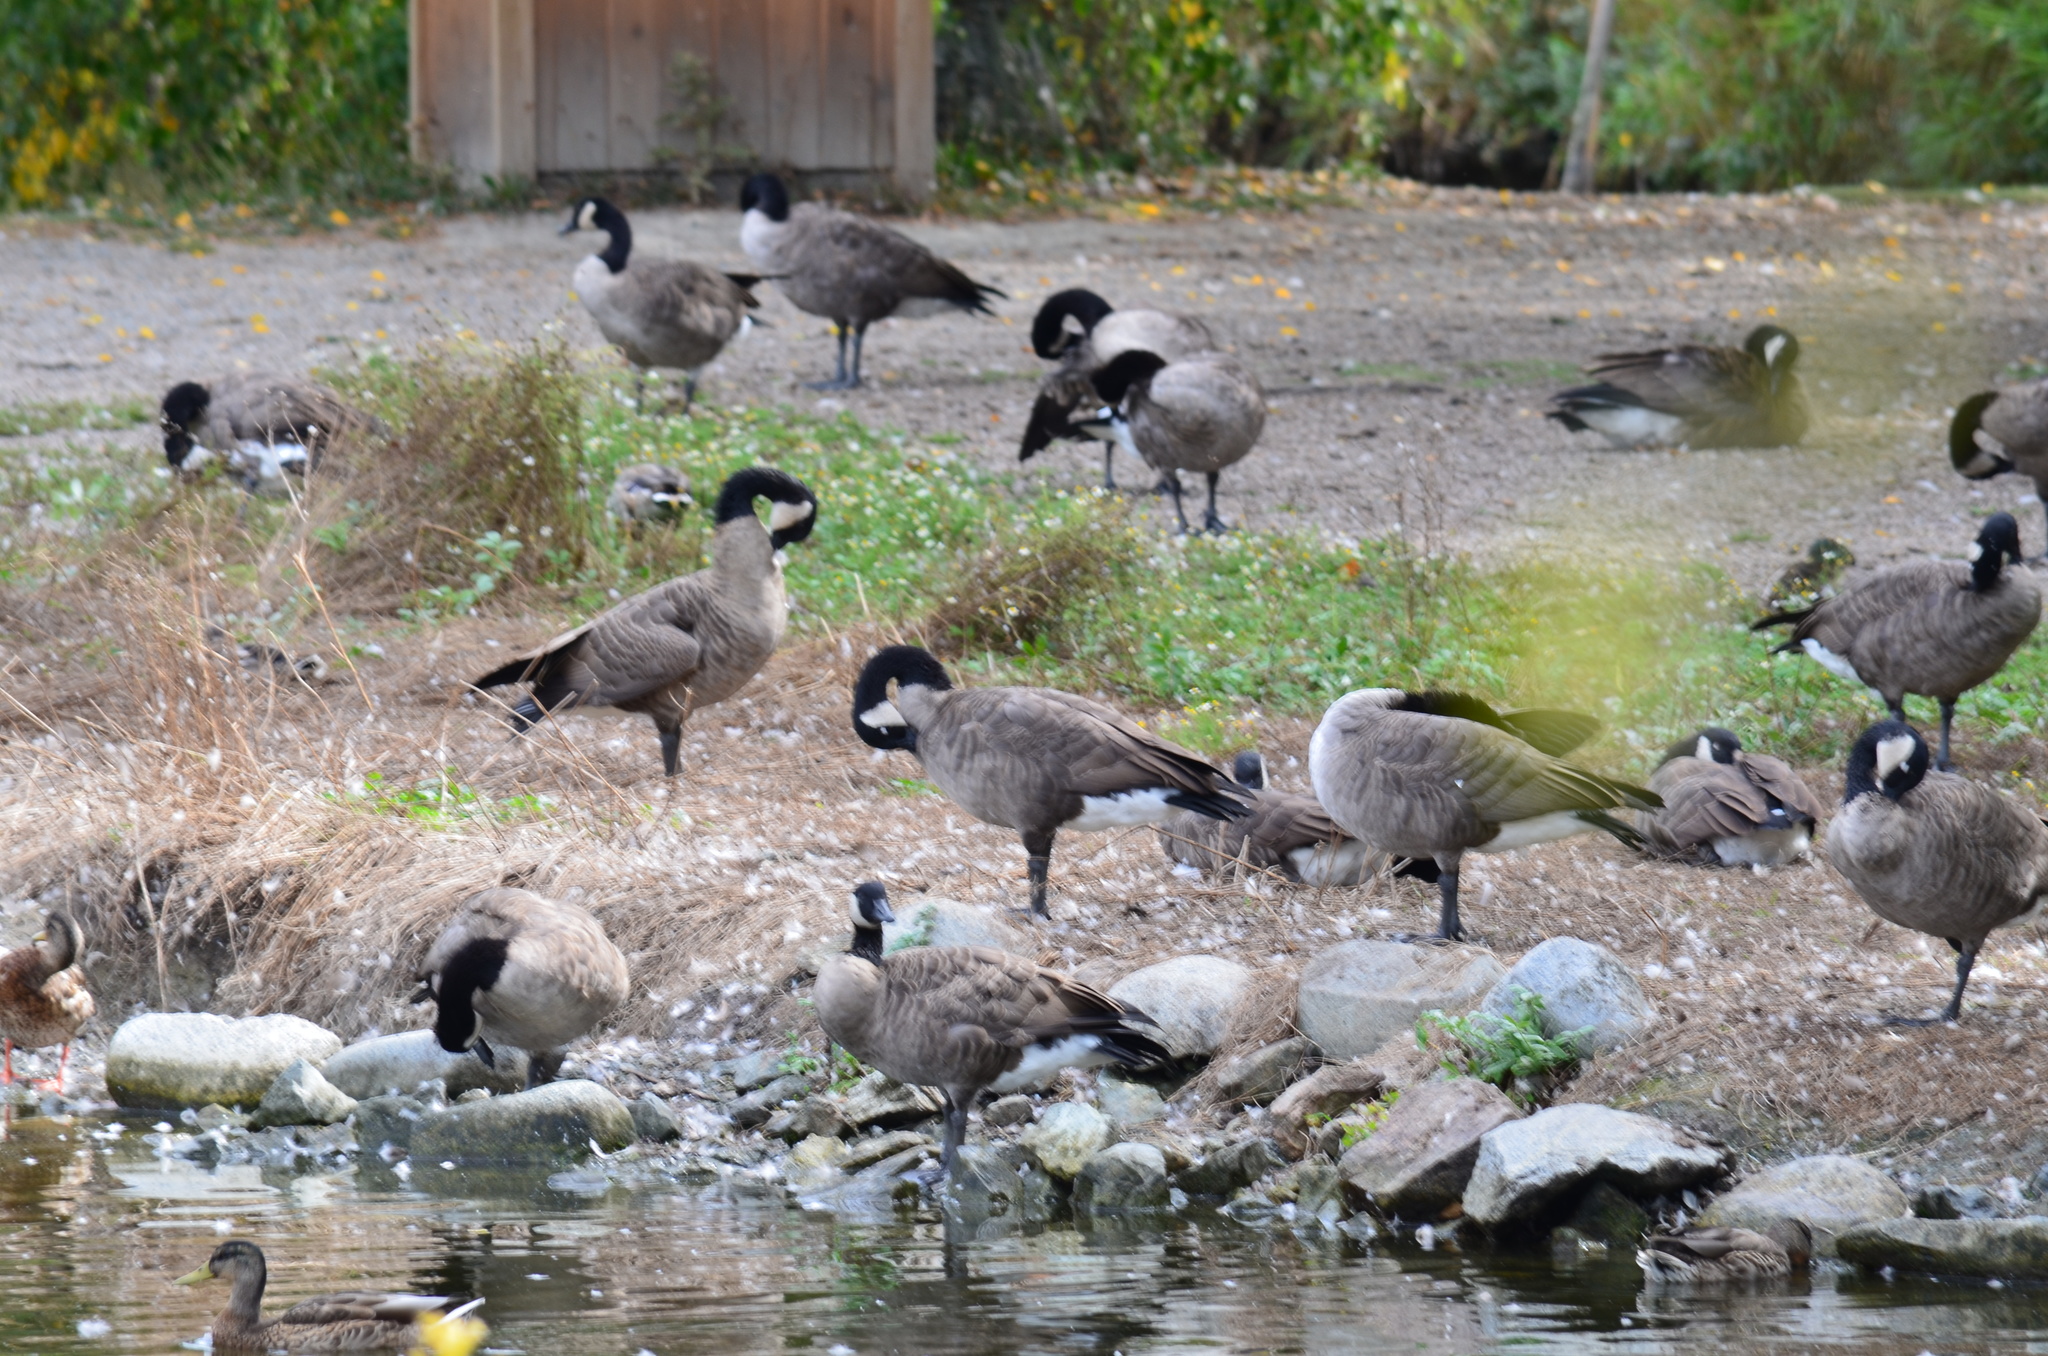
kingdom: Animalia
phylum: Chordata
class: Aves
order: Anseriformes
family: Anatidae
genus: Branta
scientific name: Branta canadensis
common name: Canada goose
